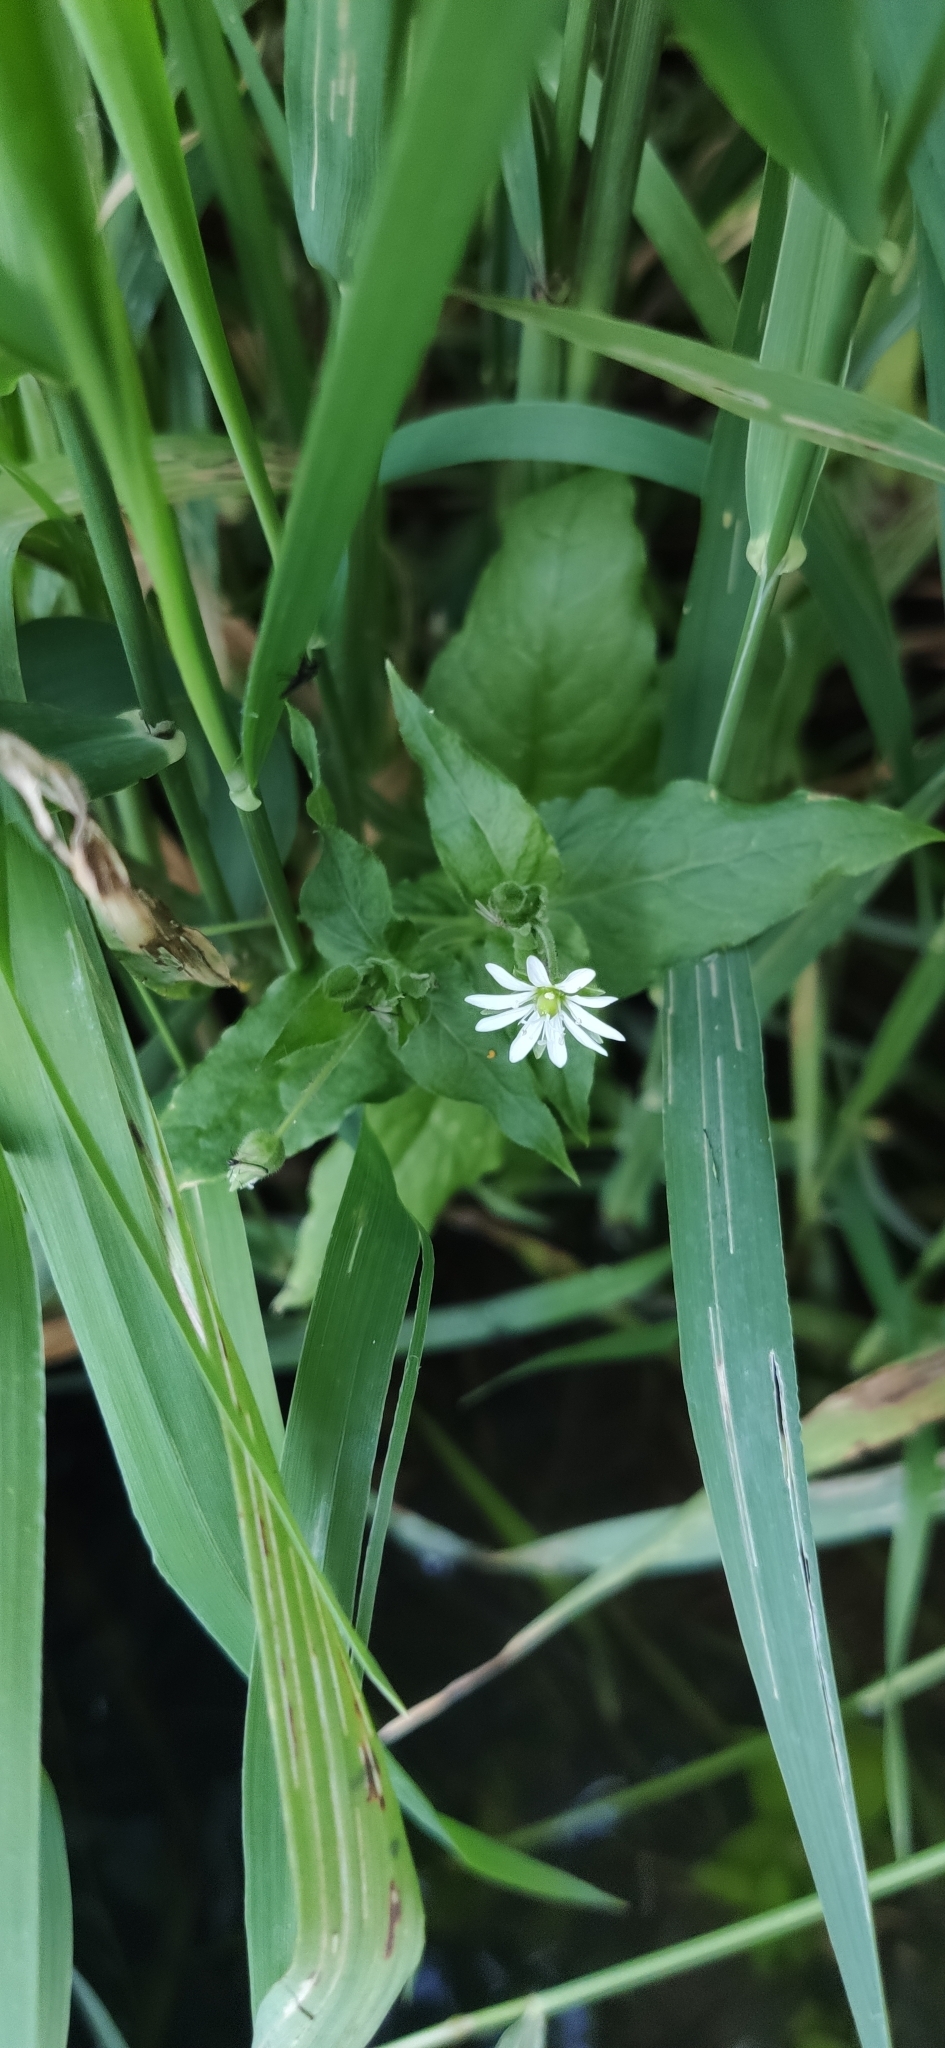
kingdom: Plantae
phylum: Tracheophyta
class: Magnoliopsida
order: Caryophyllales
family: Caryophyllaceae
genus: Stellaria
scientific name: Stellaria aquatica
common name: Water chickweed
